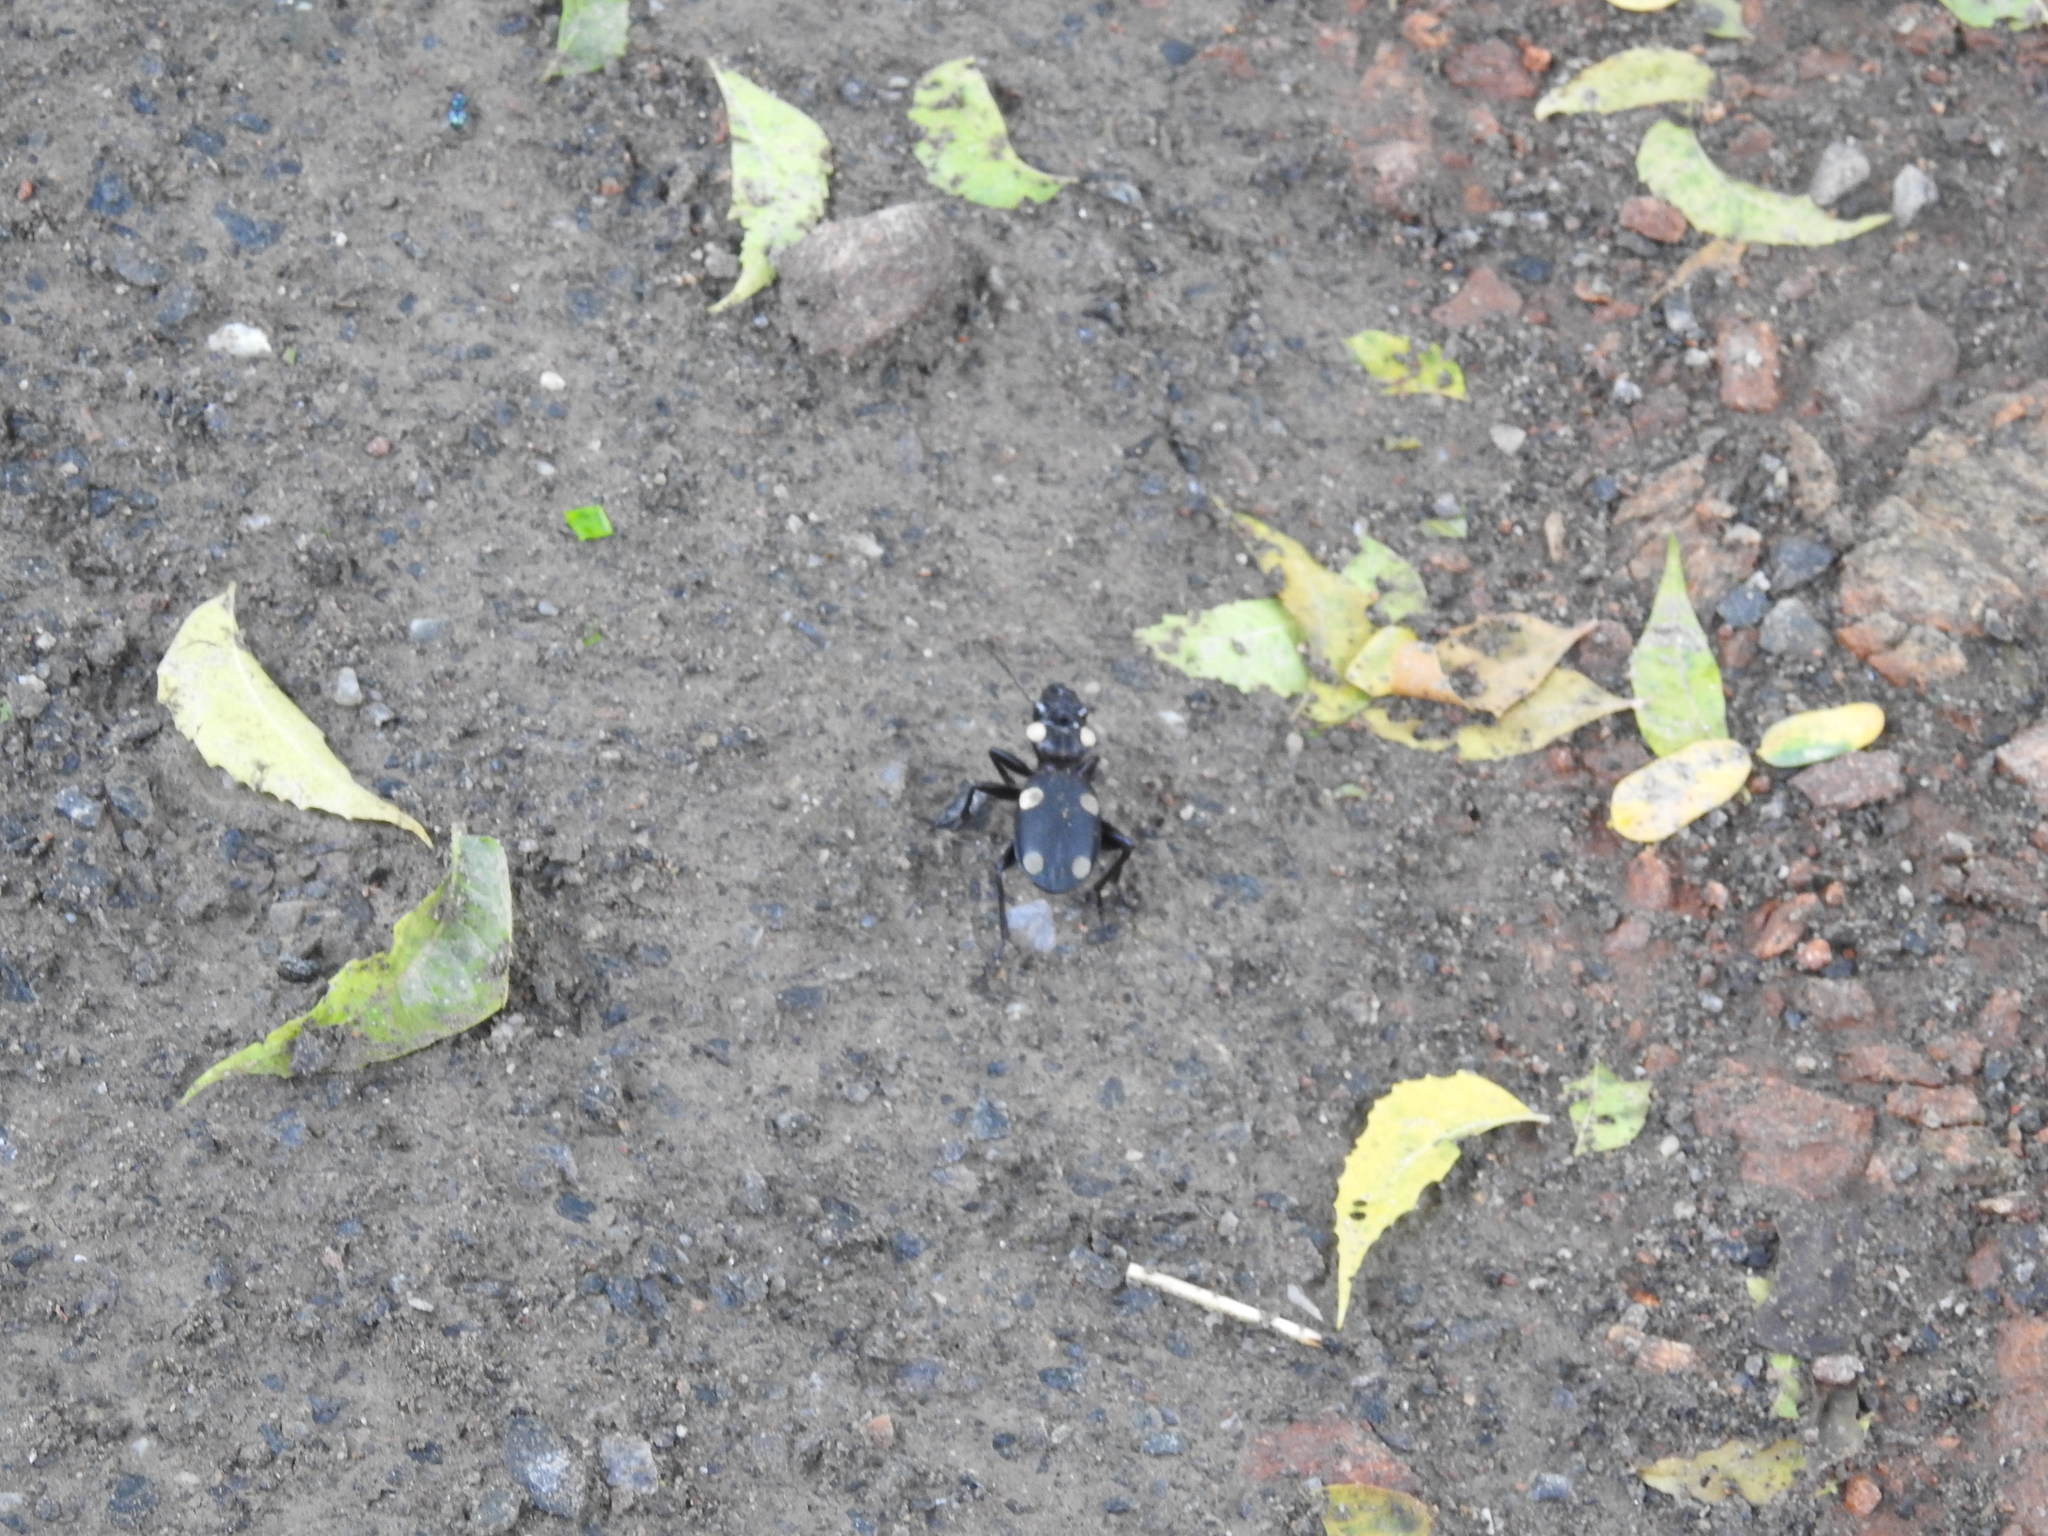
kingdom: Animalia
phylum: Arthropoda
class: Insecta
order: Coleoptera
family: Carabidae
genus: Anthia
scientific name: Anthia sexguttata
